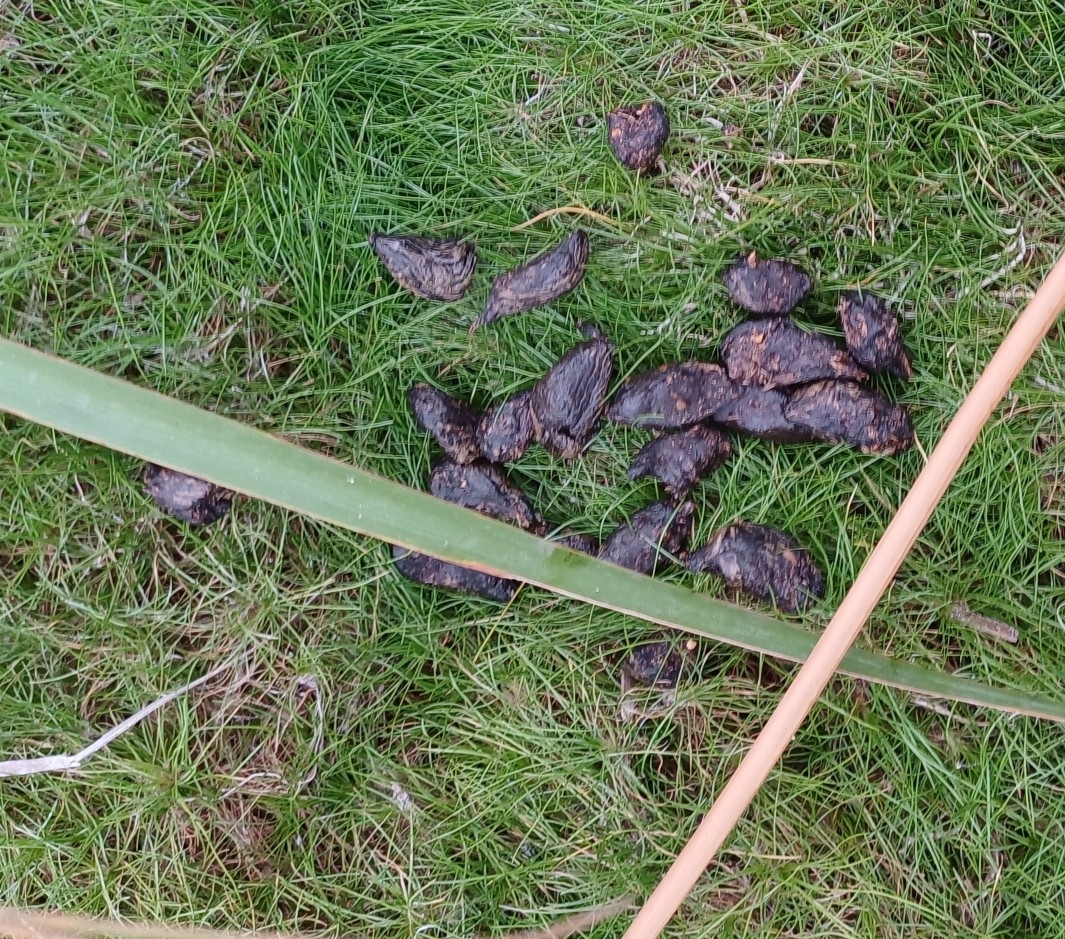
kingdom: Animalia
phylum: Chordata
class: Mammalia
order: Rodentia
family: Hystricidae
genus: Hystrix
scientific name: Hystrix africaeaustralis
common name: Cape porcupine
